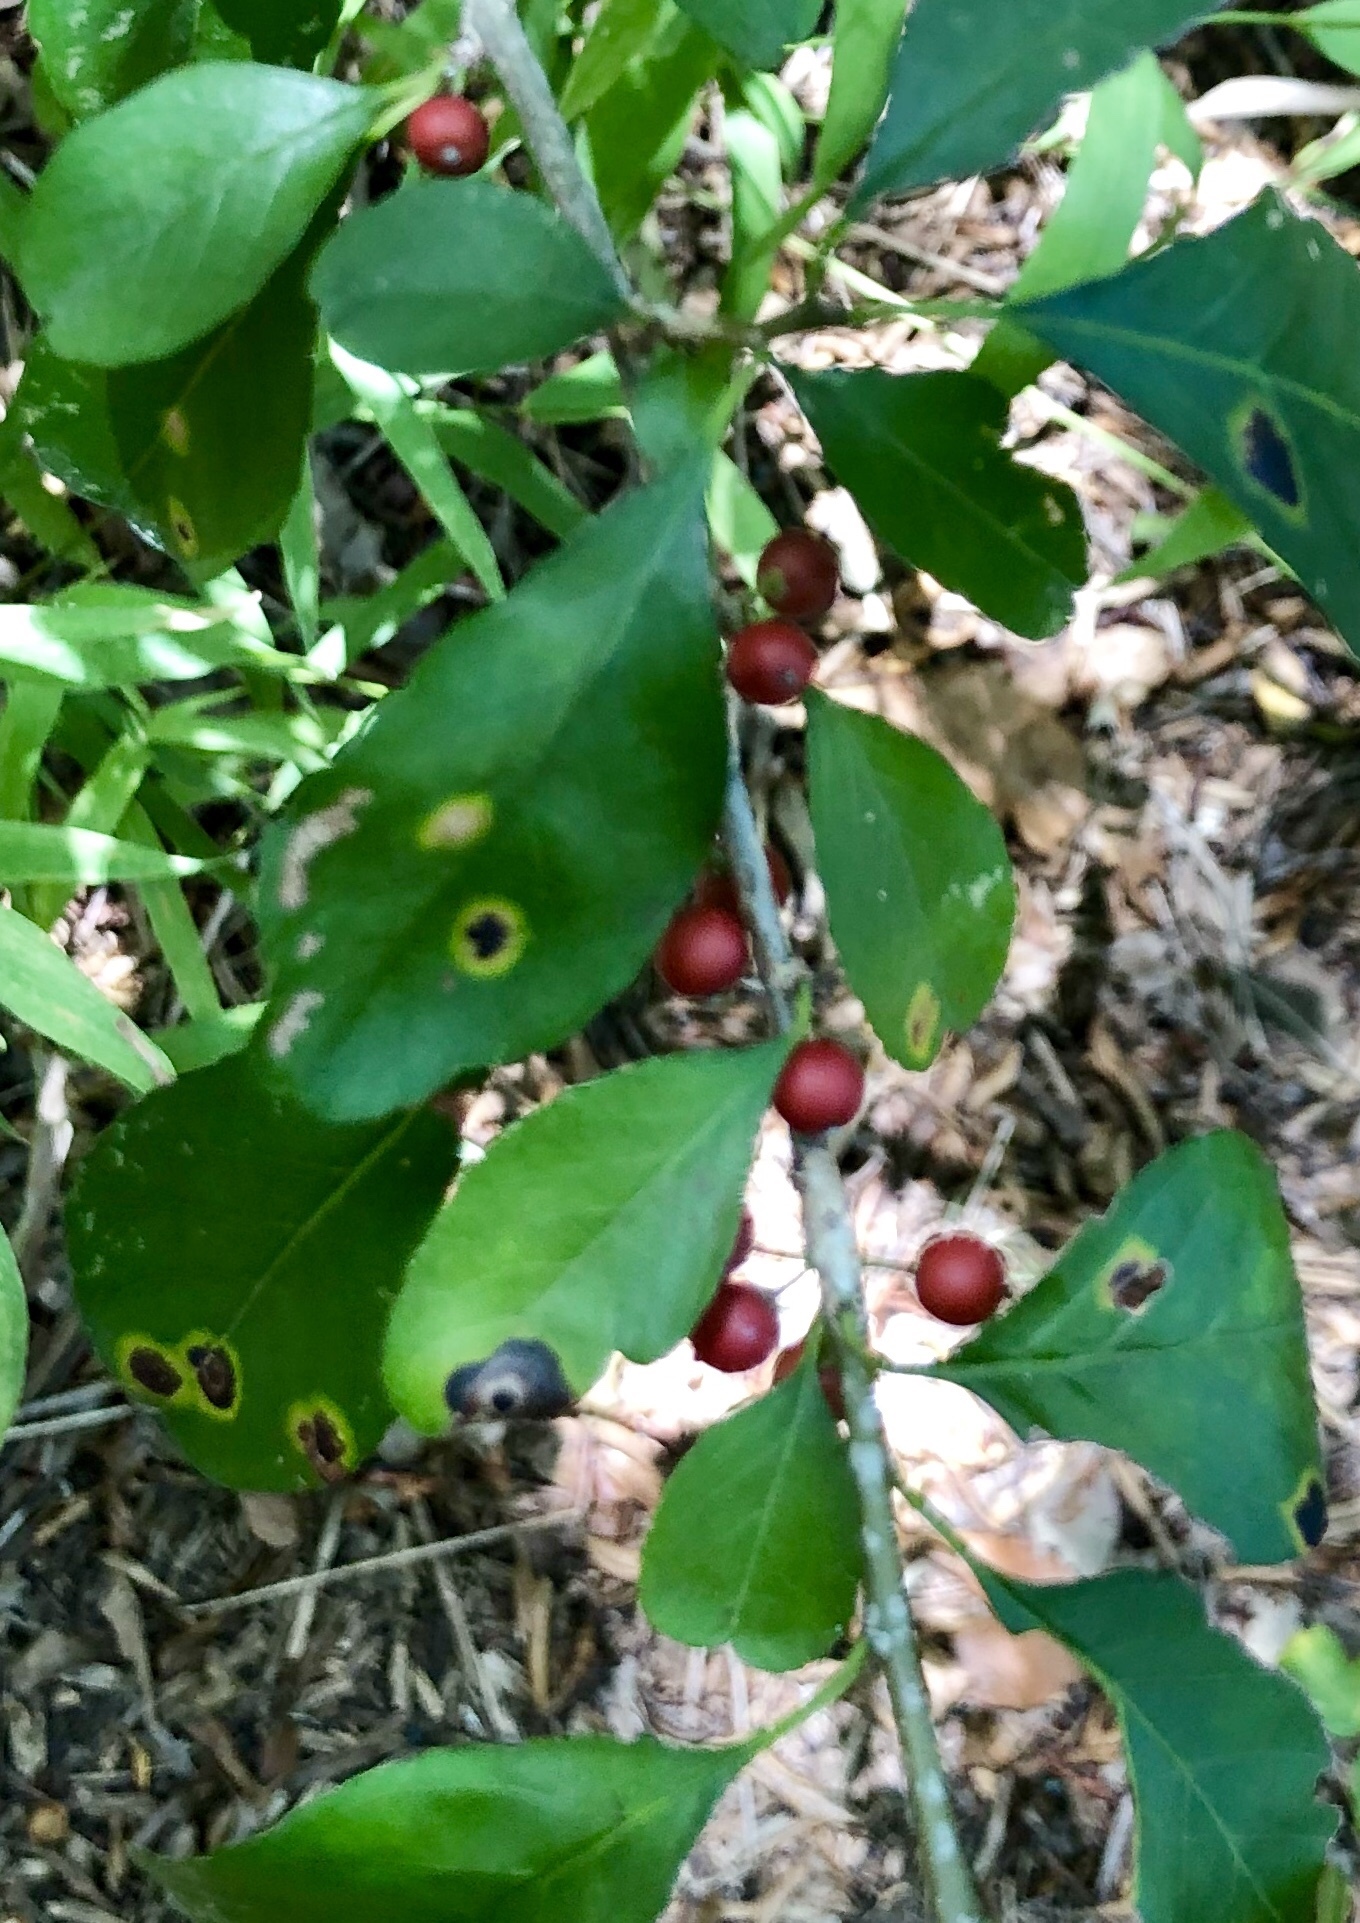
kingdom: Plantae
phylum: Tracheophyta
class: Magnoliopsida
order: Aquifoliales
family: Aquifoliaceae
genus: Ilex
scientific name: Ilex decidua
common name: Possum-haw
